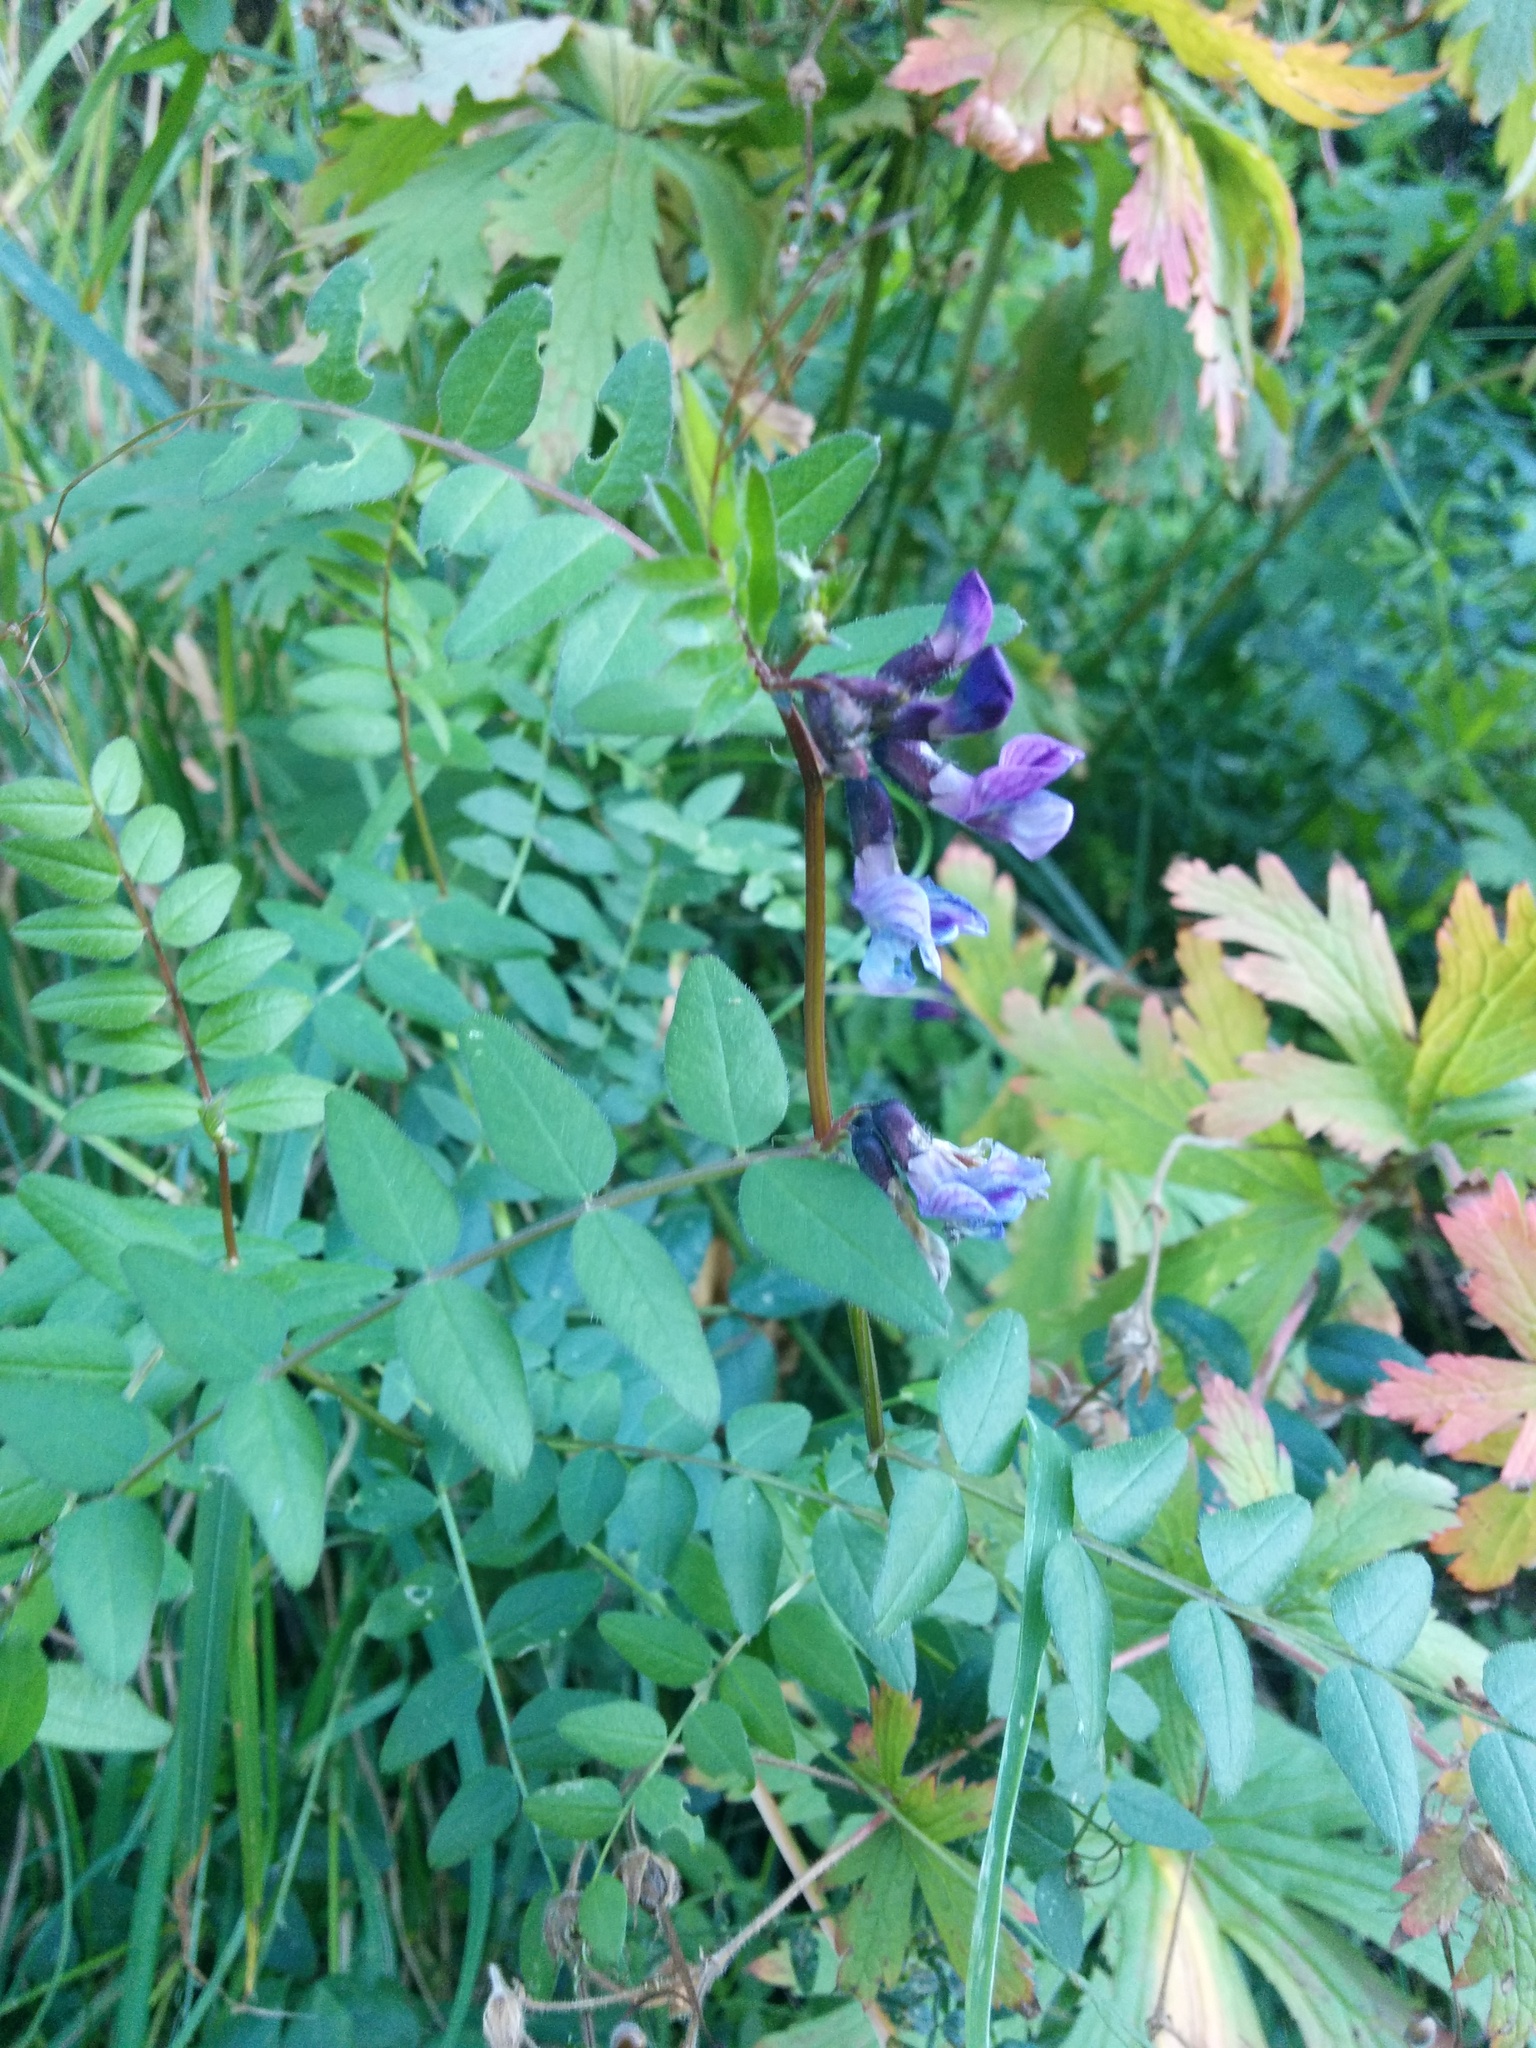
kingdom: Plantae
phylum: Tracheophyta
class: Magnoliopsida
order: Fabales
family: Fabaceae
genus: Vicia
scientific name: Vicia sepium
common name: Bush vetch
